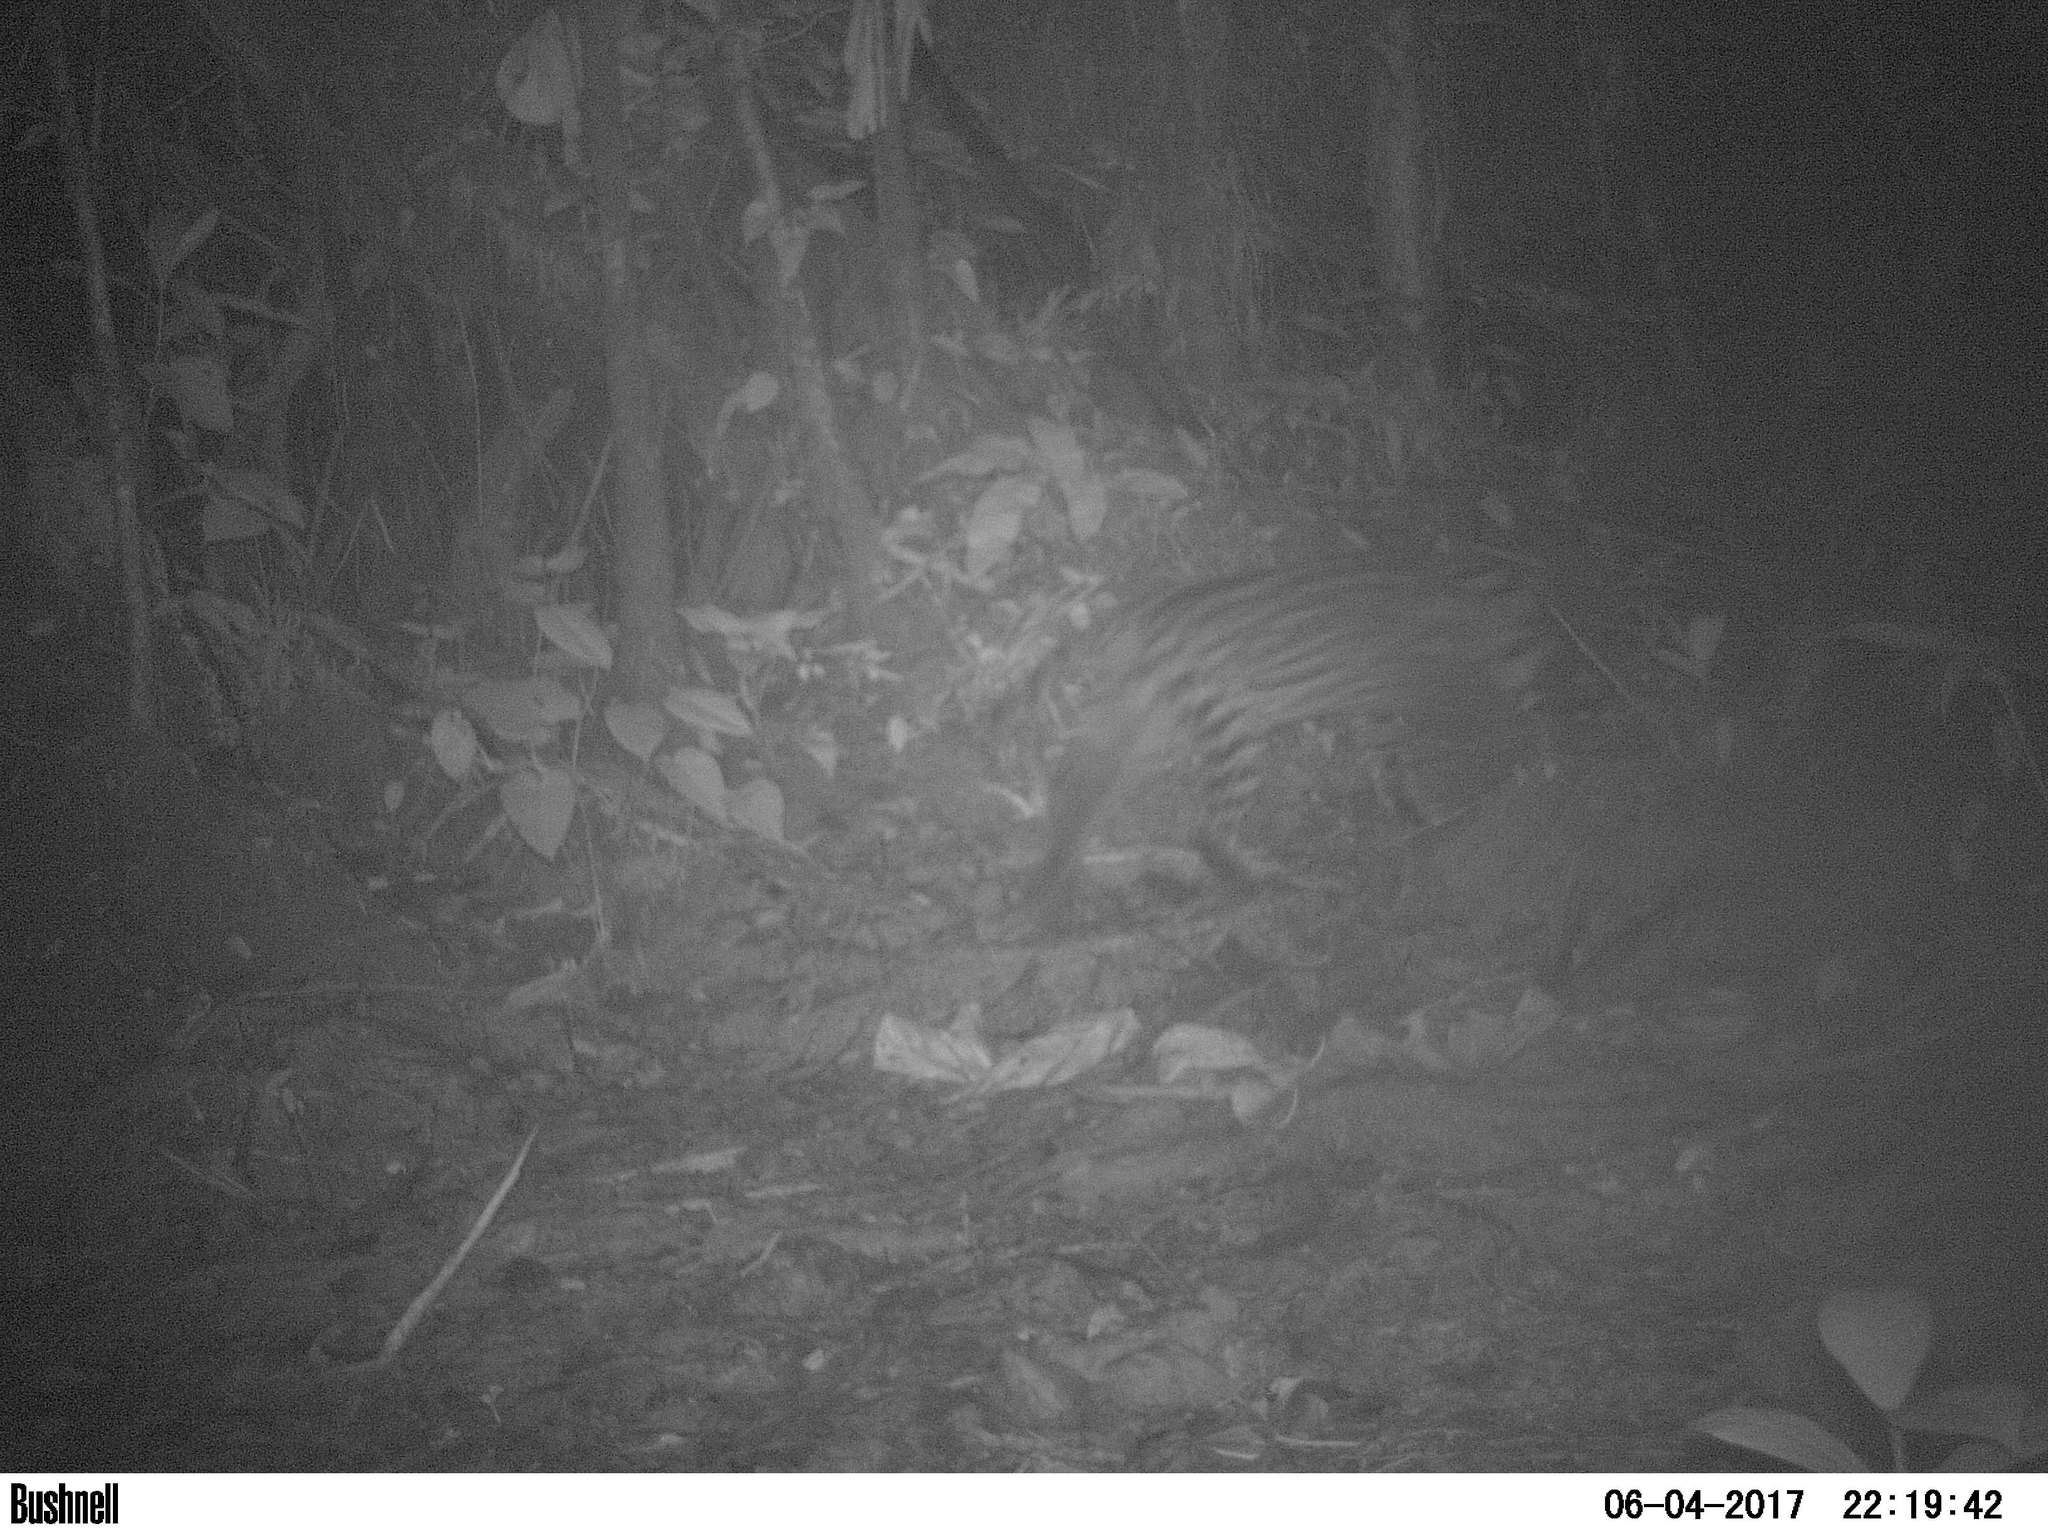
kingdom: Animalia
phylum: Chordata
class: Mammalia
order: Carnivora
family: Felidae
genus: Leopardus
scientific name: Leopardus pardalis
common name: Ocelot
